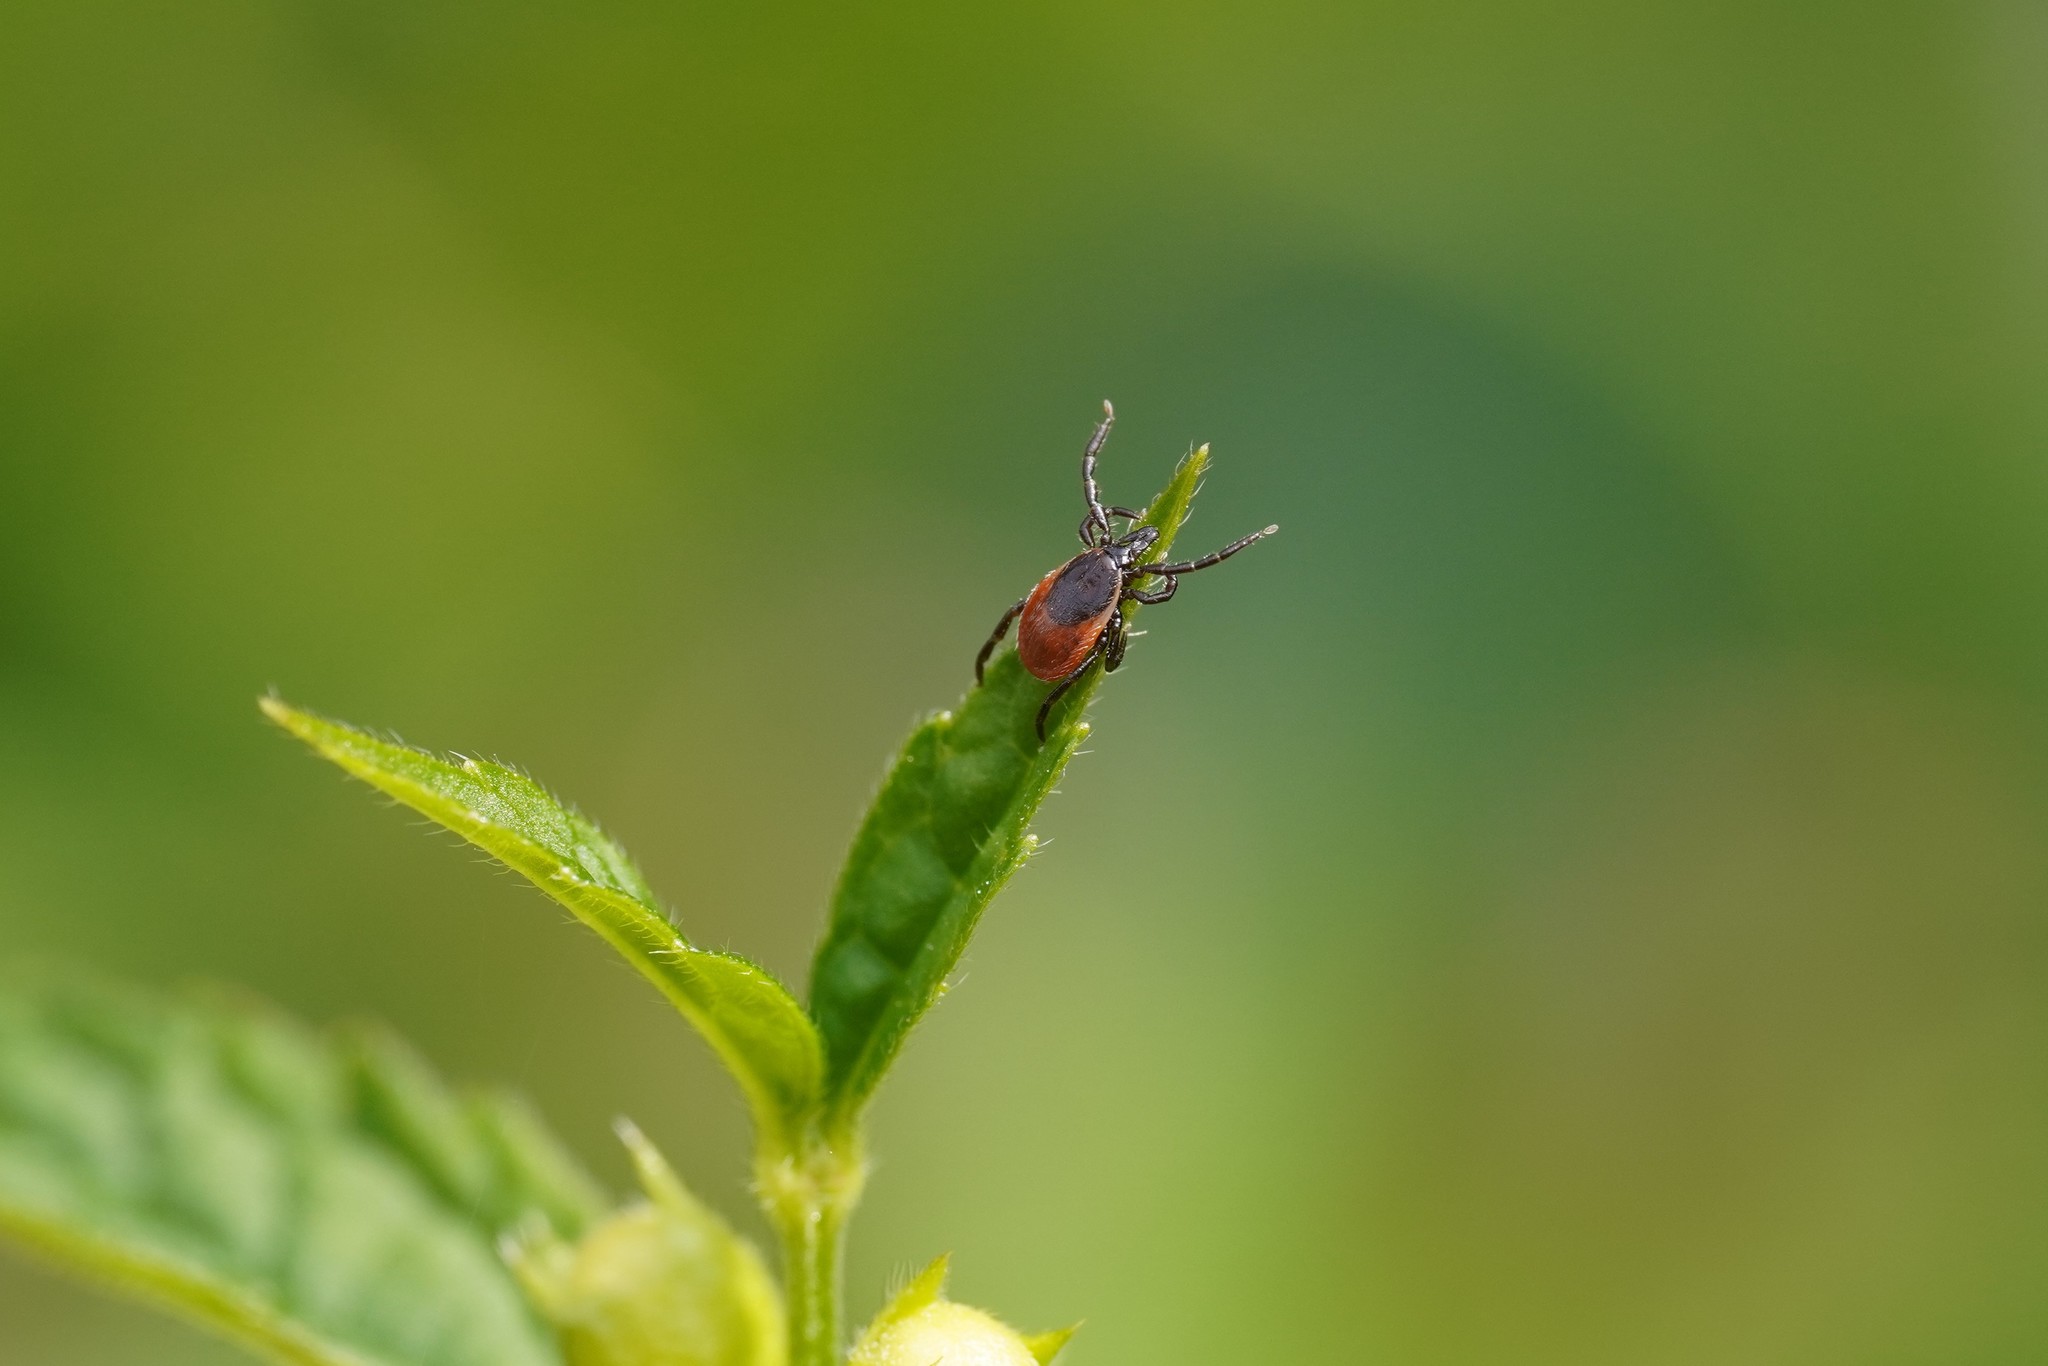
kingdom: Animalia
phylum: Arthropoda
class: Arachnida
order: Ixodida
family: Ixodidae
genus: Ixodes
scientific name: Ixodes ricinus
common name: Castor bean tick
